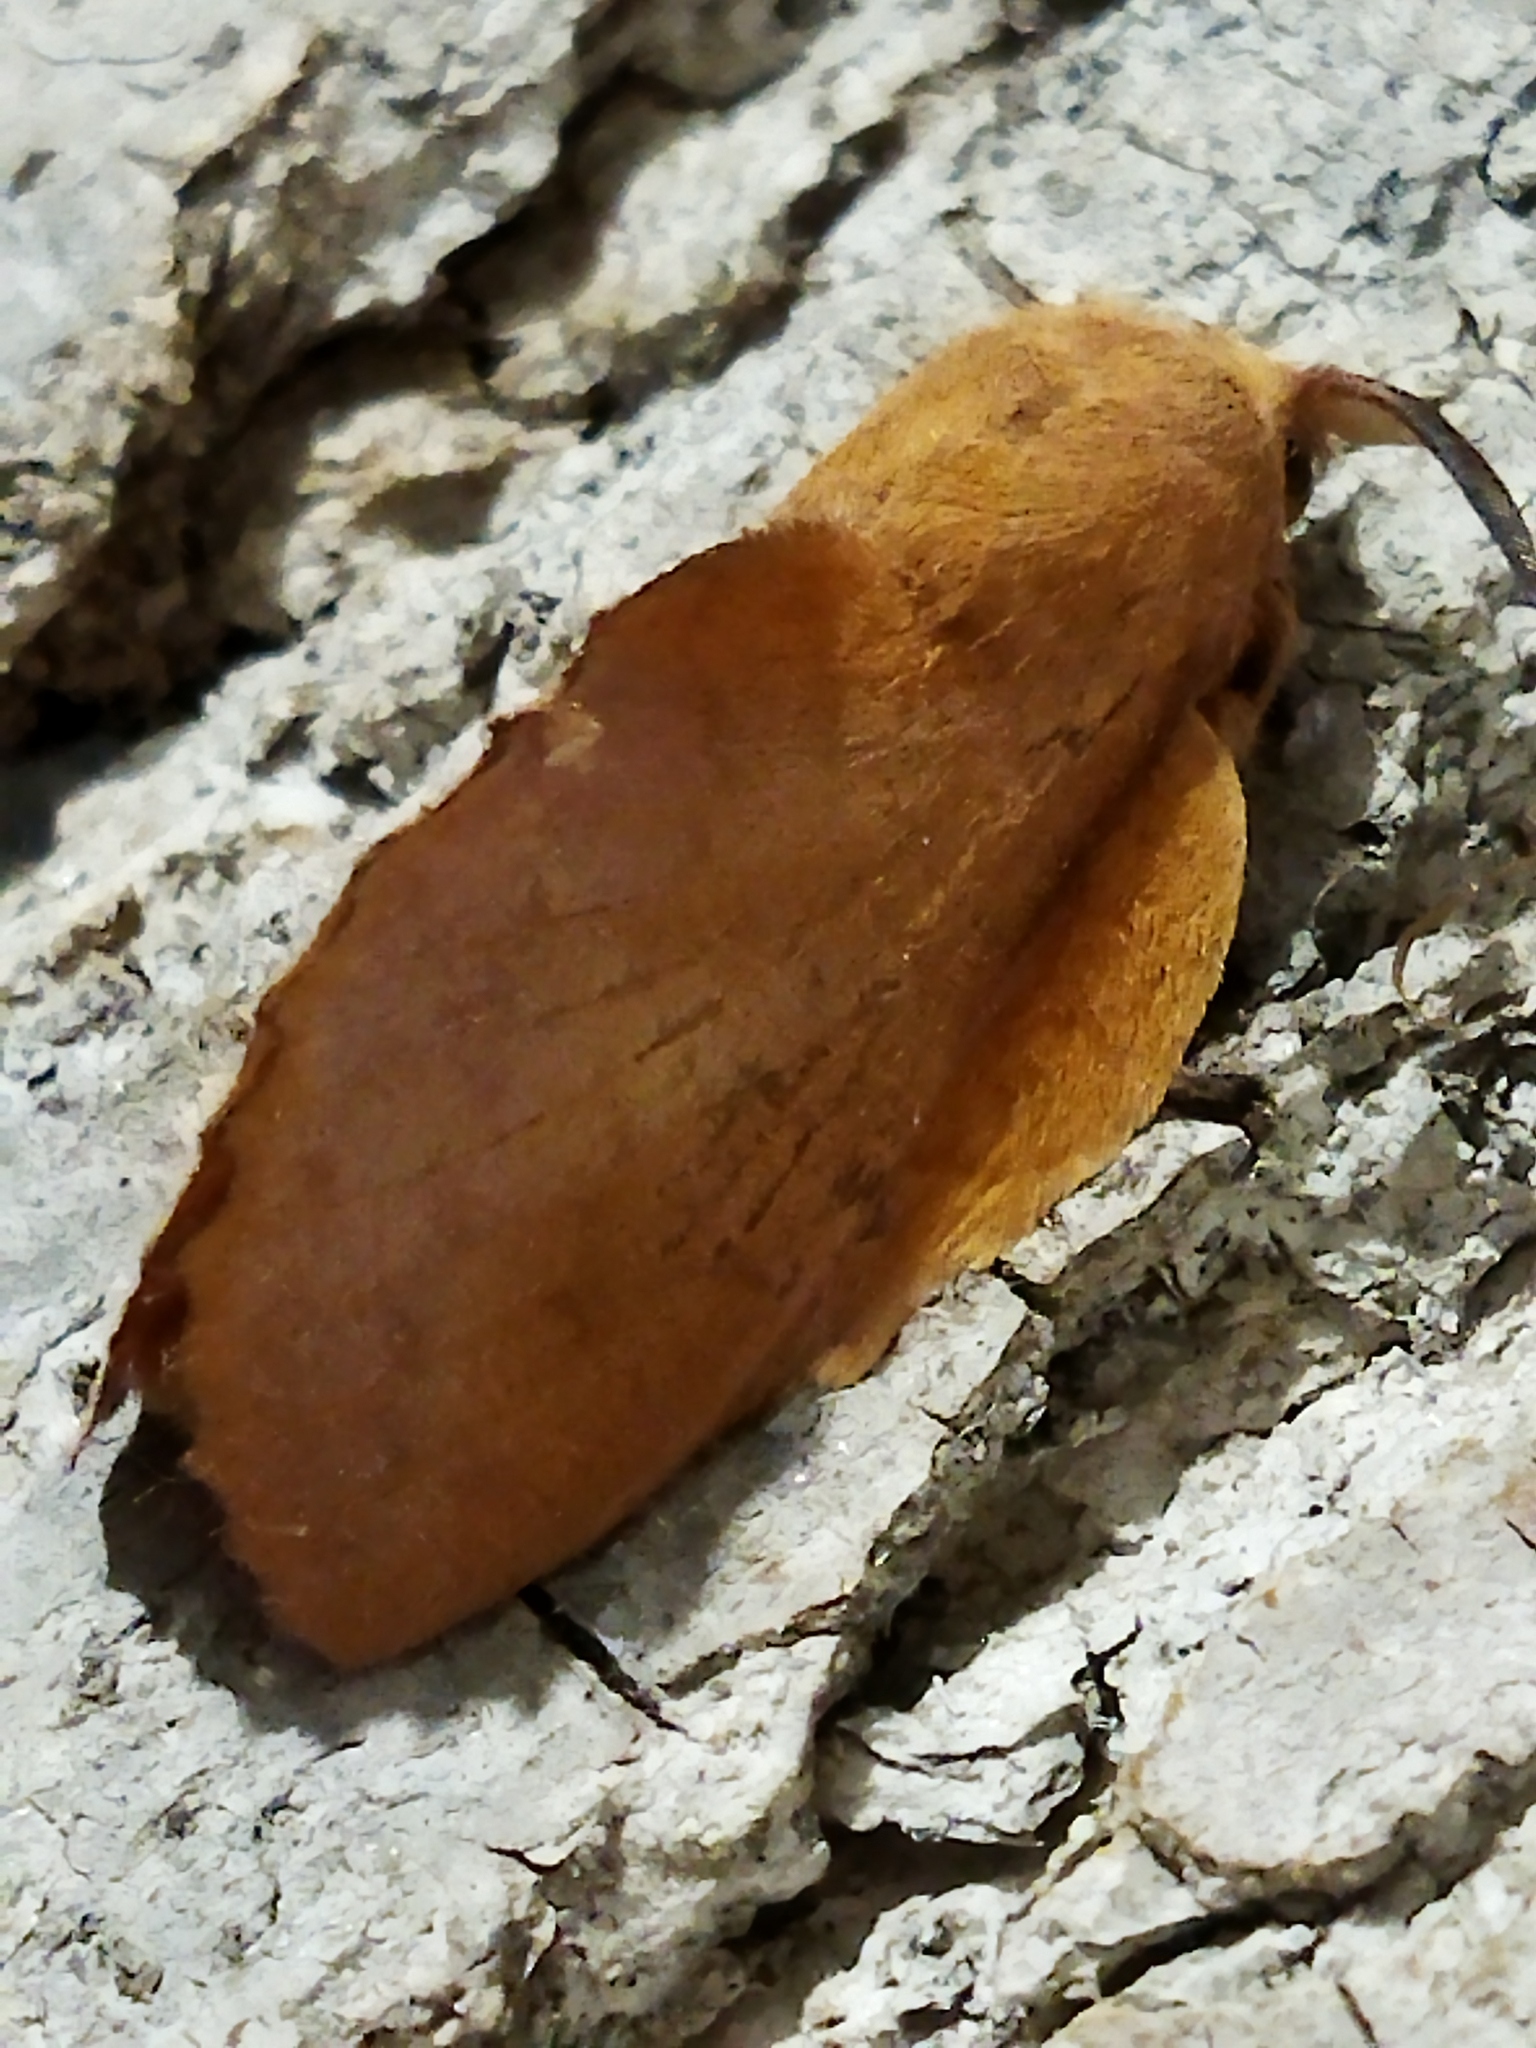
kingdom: Animalia
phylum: Arthropoda
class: Insecta
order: Lepidoptera
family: Lasiocampidae
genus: Gastropacha
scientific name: Gastropacha quercifolia
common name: Lappet
